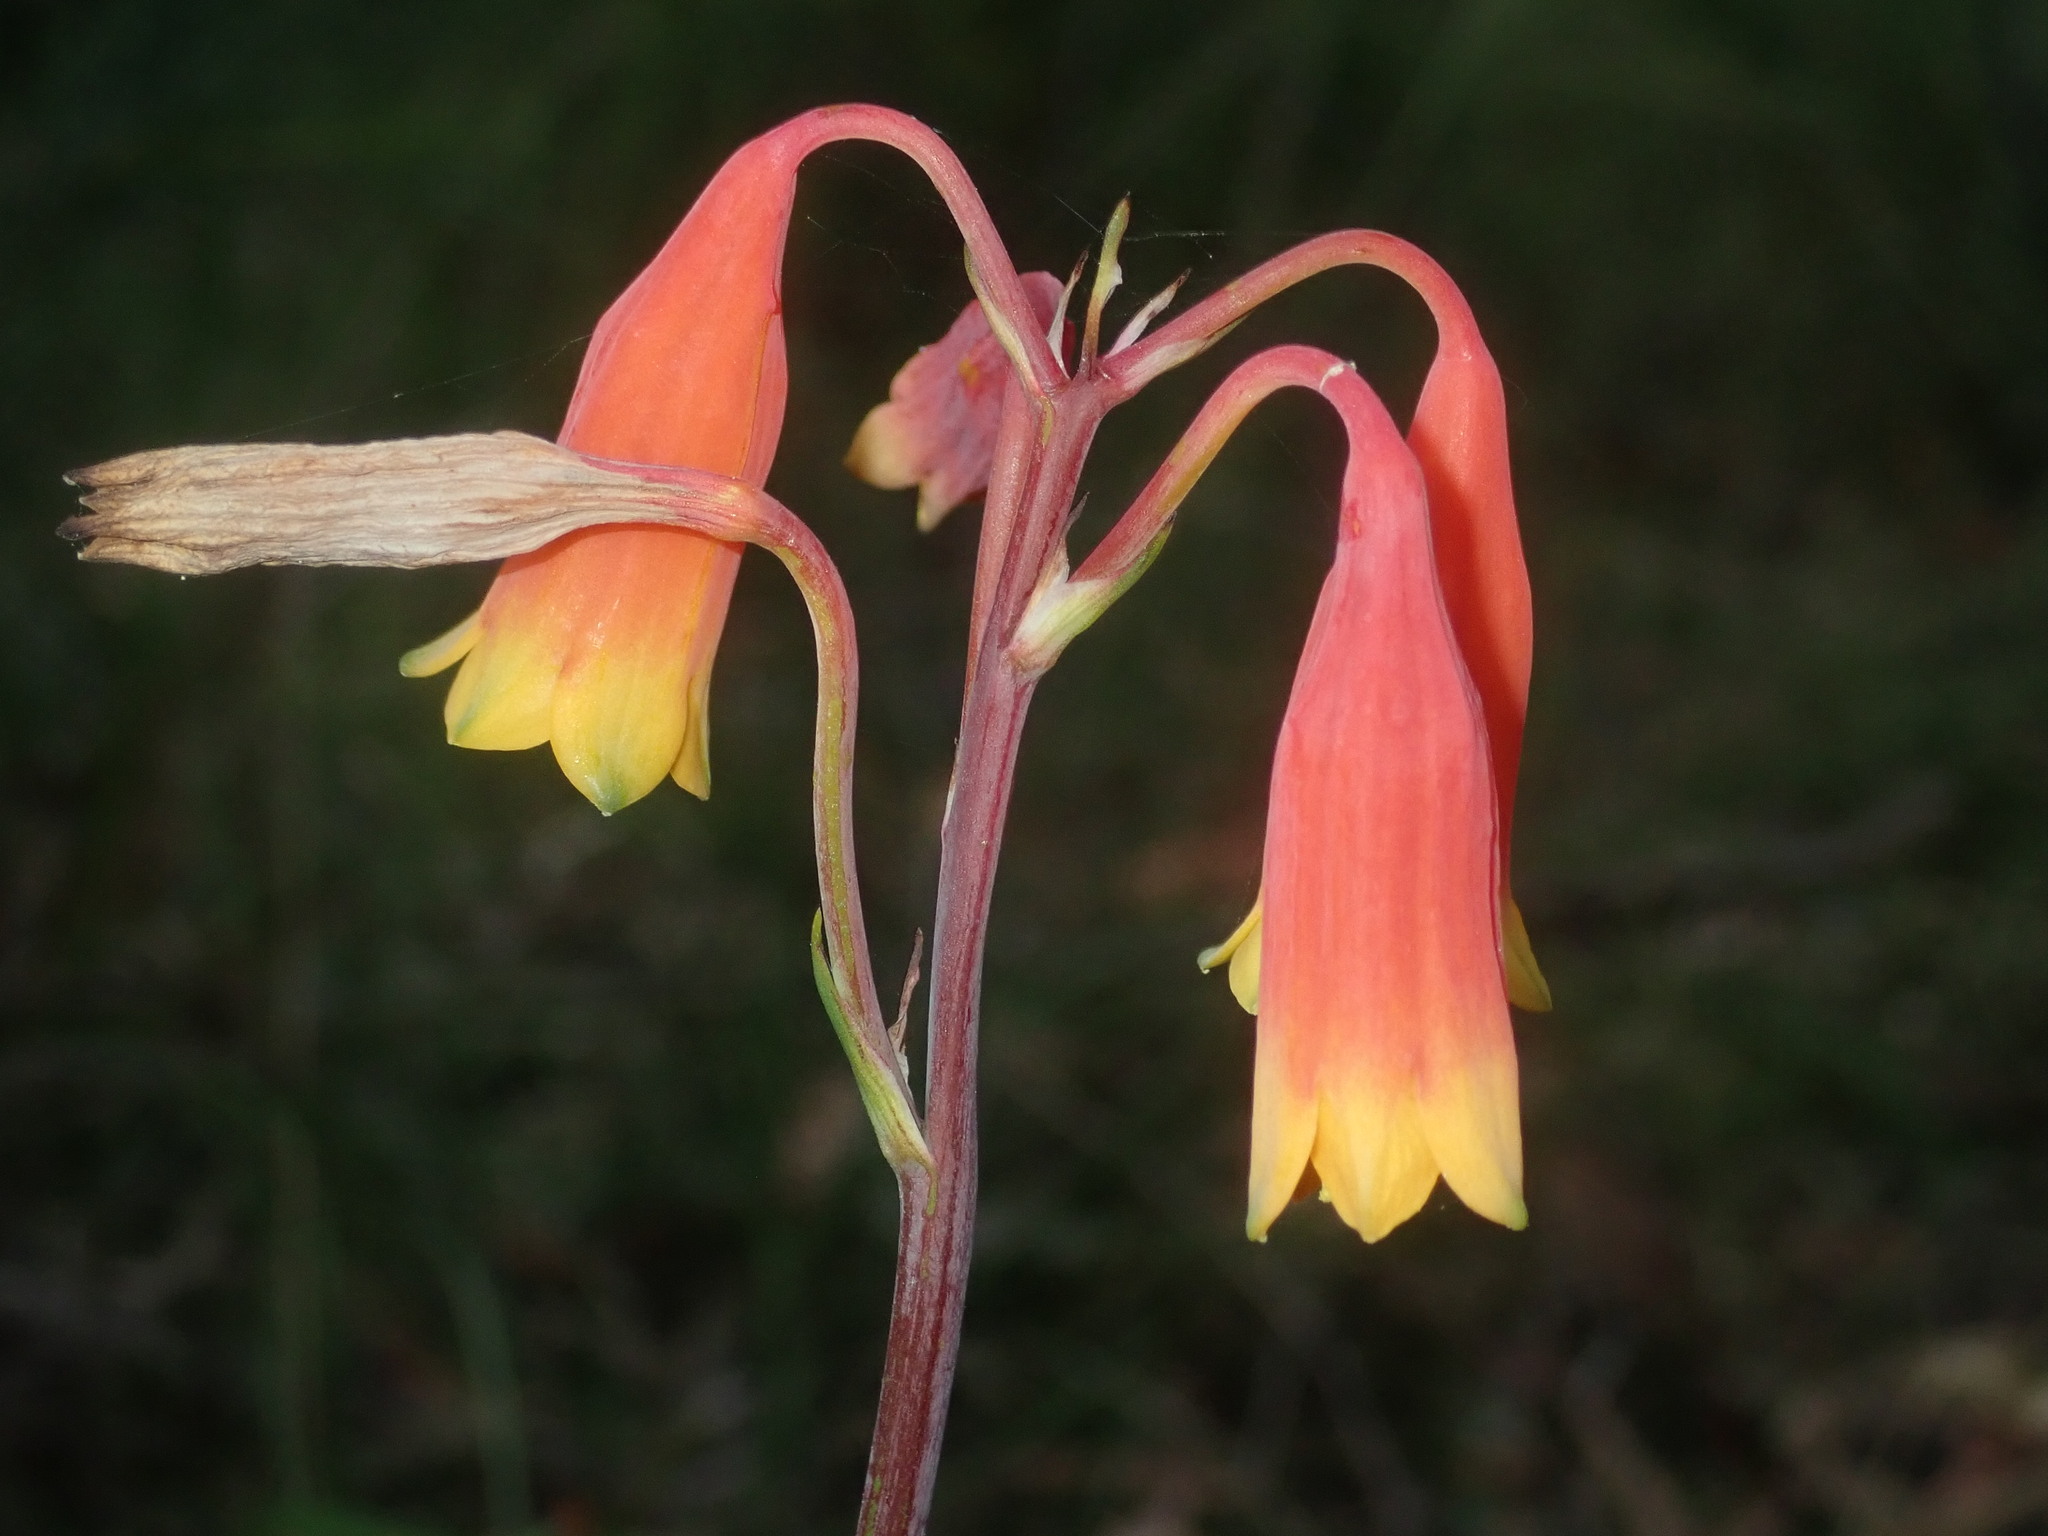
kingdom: Plantae
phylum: Tracheophyta
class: Liliopsida
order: Asparagales
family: Blandfordiaceae
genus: Blandfordia
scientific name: Blandfordia nobilis
